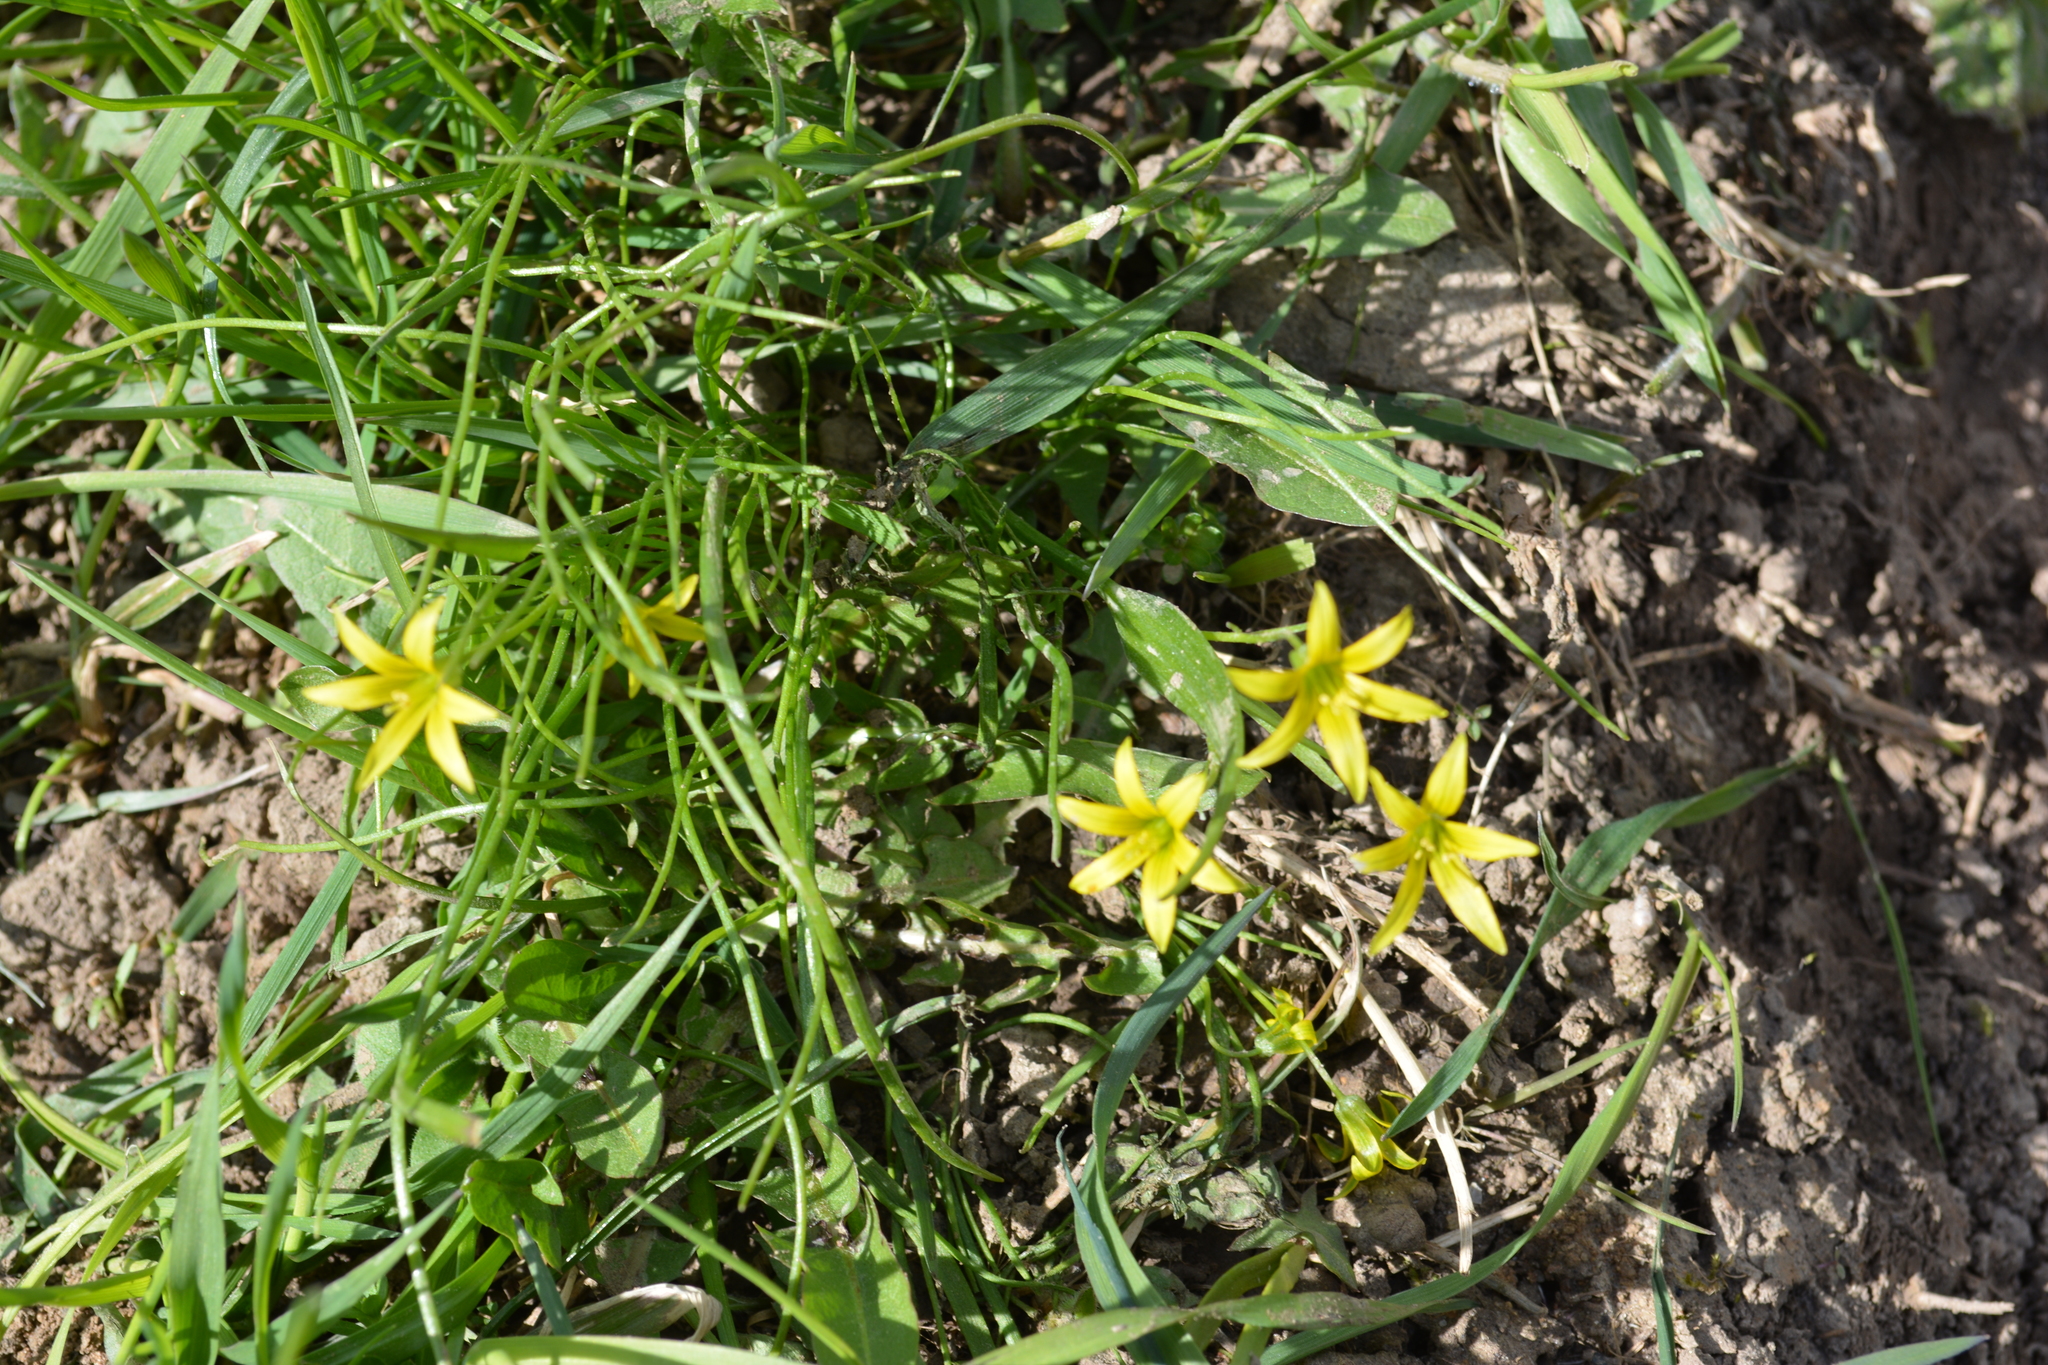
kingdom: Plantae
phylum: Tracheophyta
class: Liliopsida
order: Liliales
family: Liliaceae
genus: Gagea
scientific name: Gagea minima
